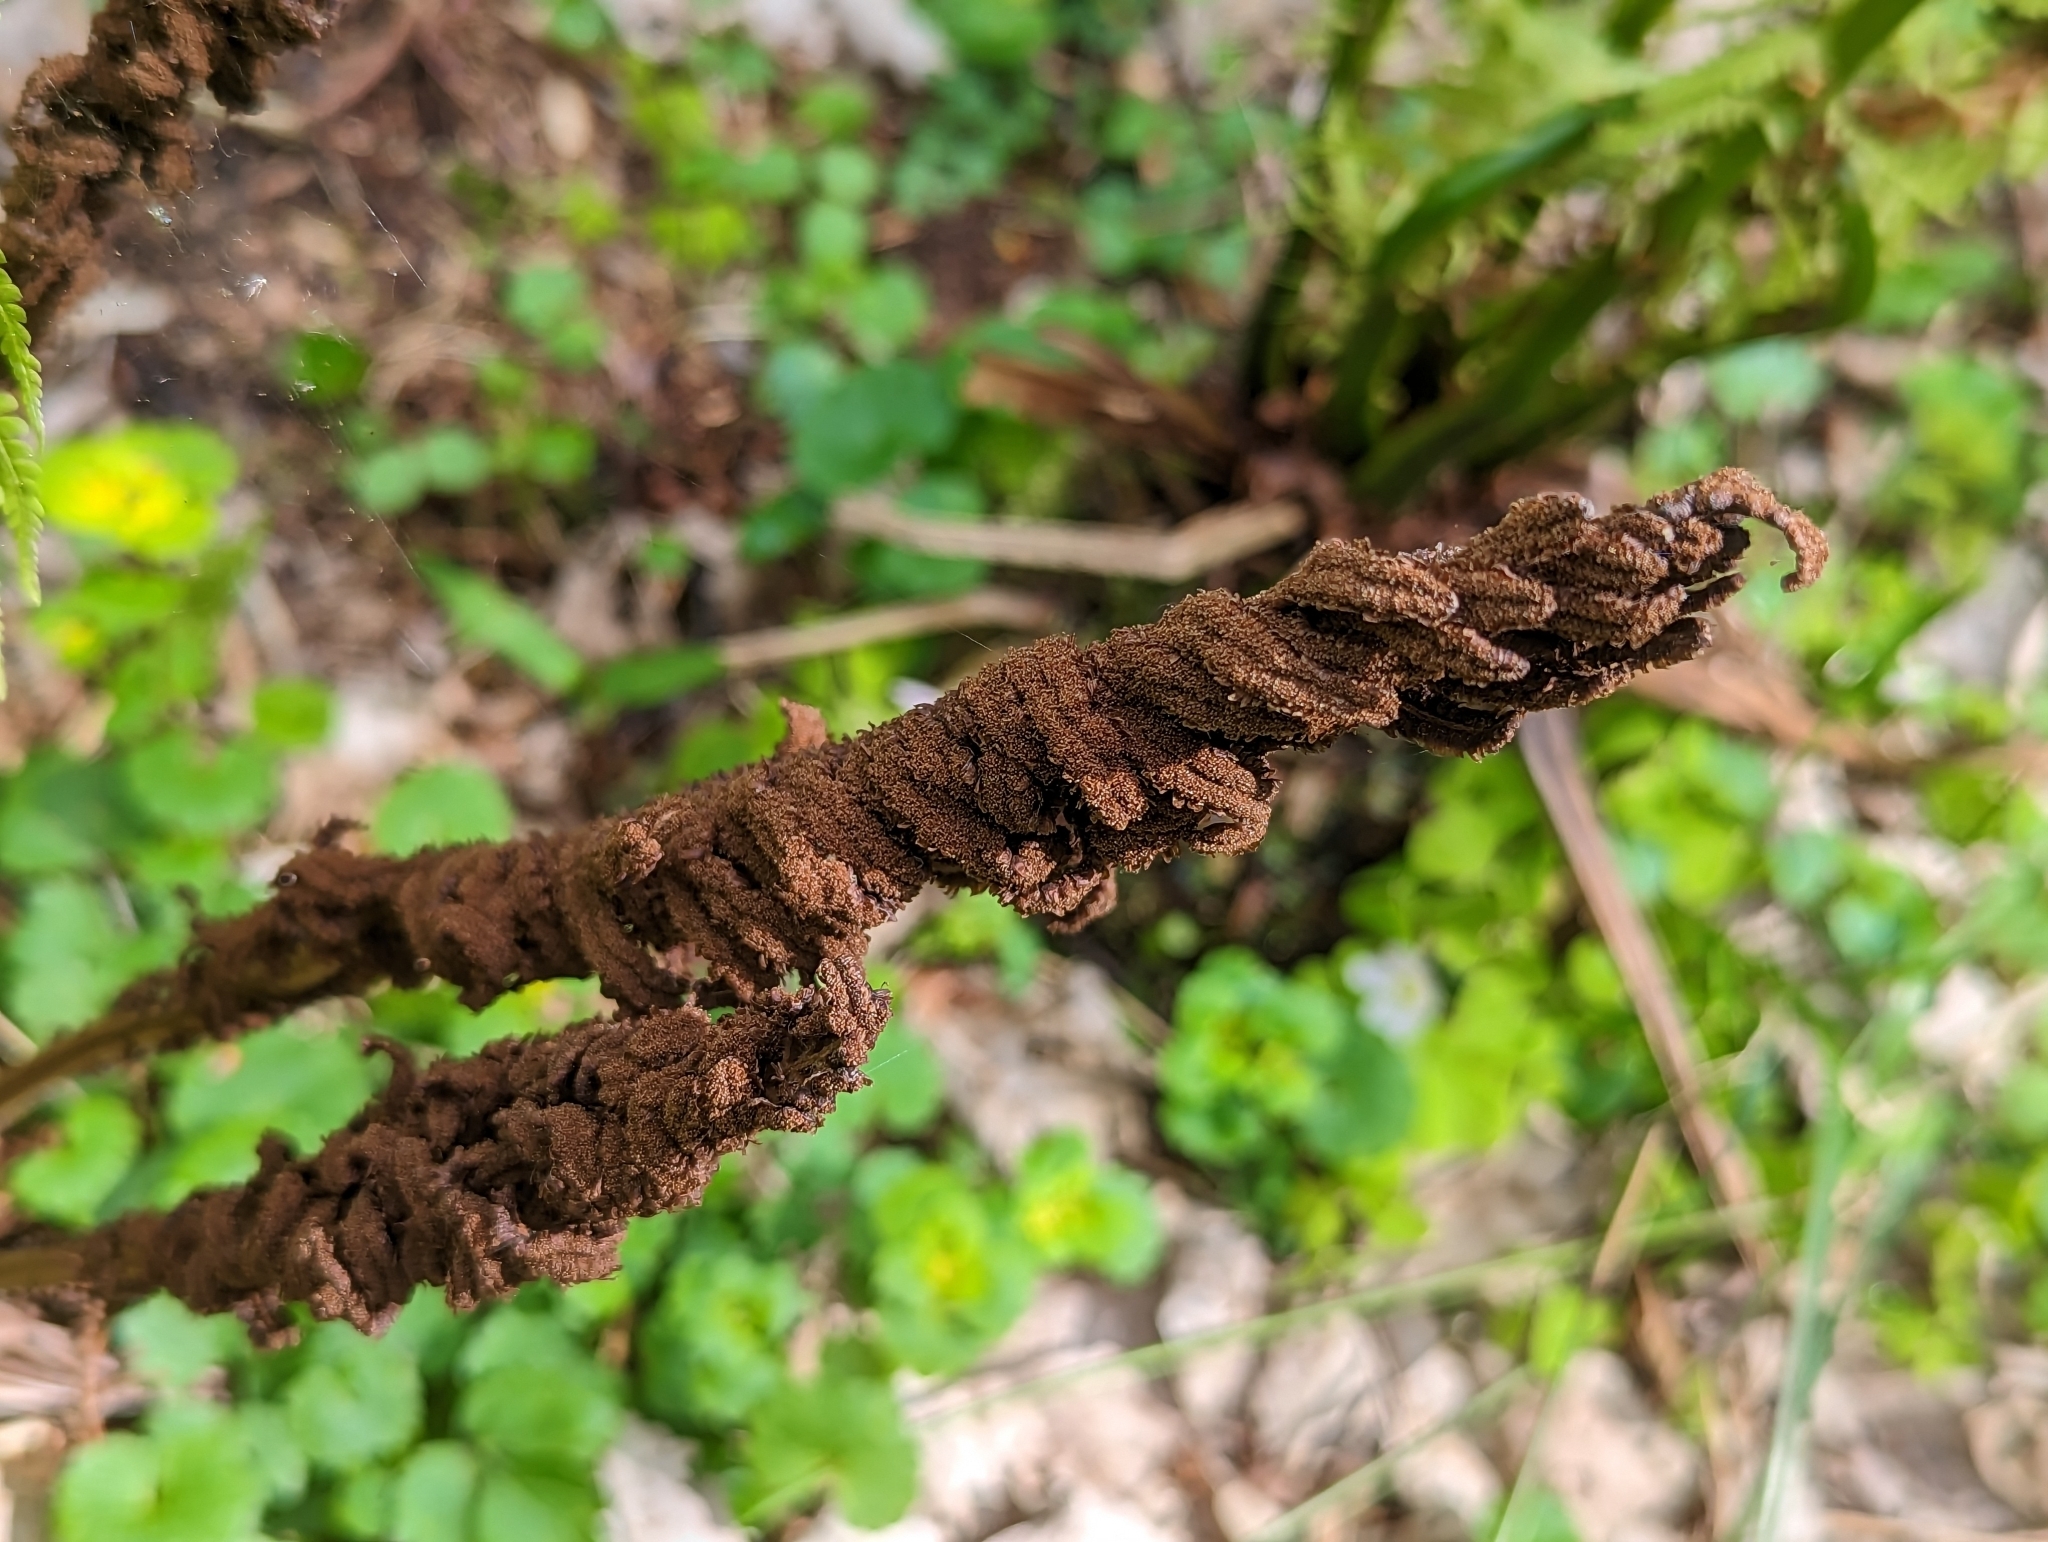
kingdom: Plantae
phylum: Tracheophyta
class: Polypodiopsida
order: Polypodiales
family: Onocleaceae
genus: Matteuccia
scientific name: Matteuccia struthiopteris
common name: Ostrich fern
